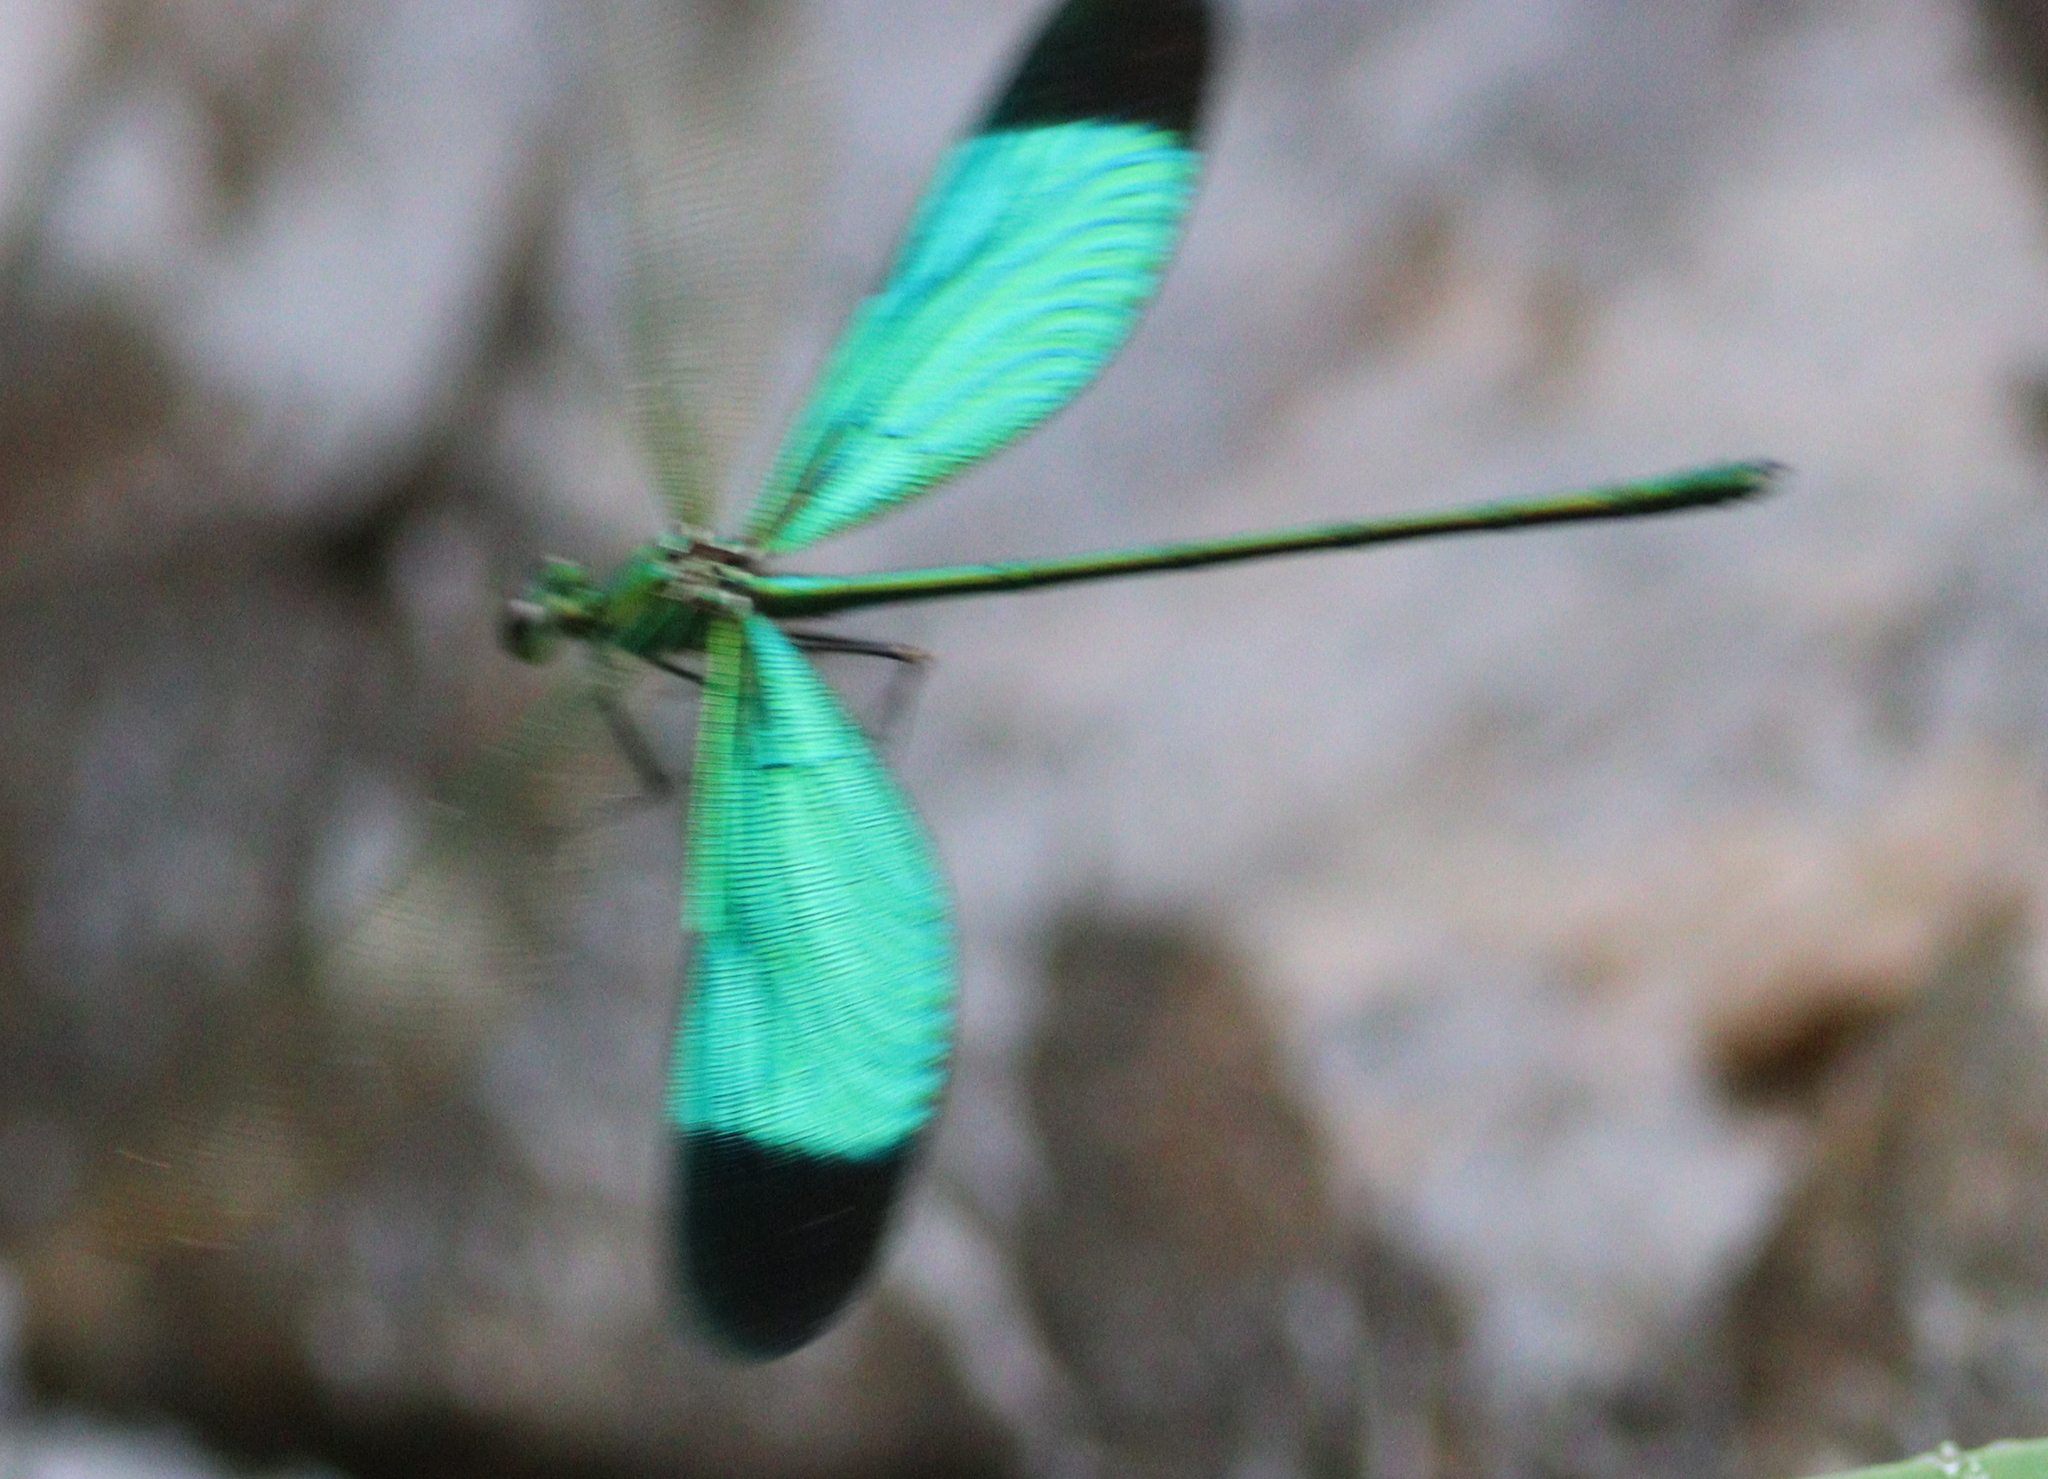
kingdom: Animalia
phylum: Arthropoda
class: Insecta
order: Odonata
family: Calopterygidae
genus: Neurobasis
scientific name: Neurobasis chinensis
